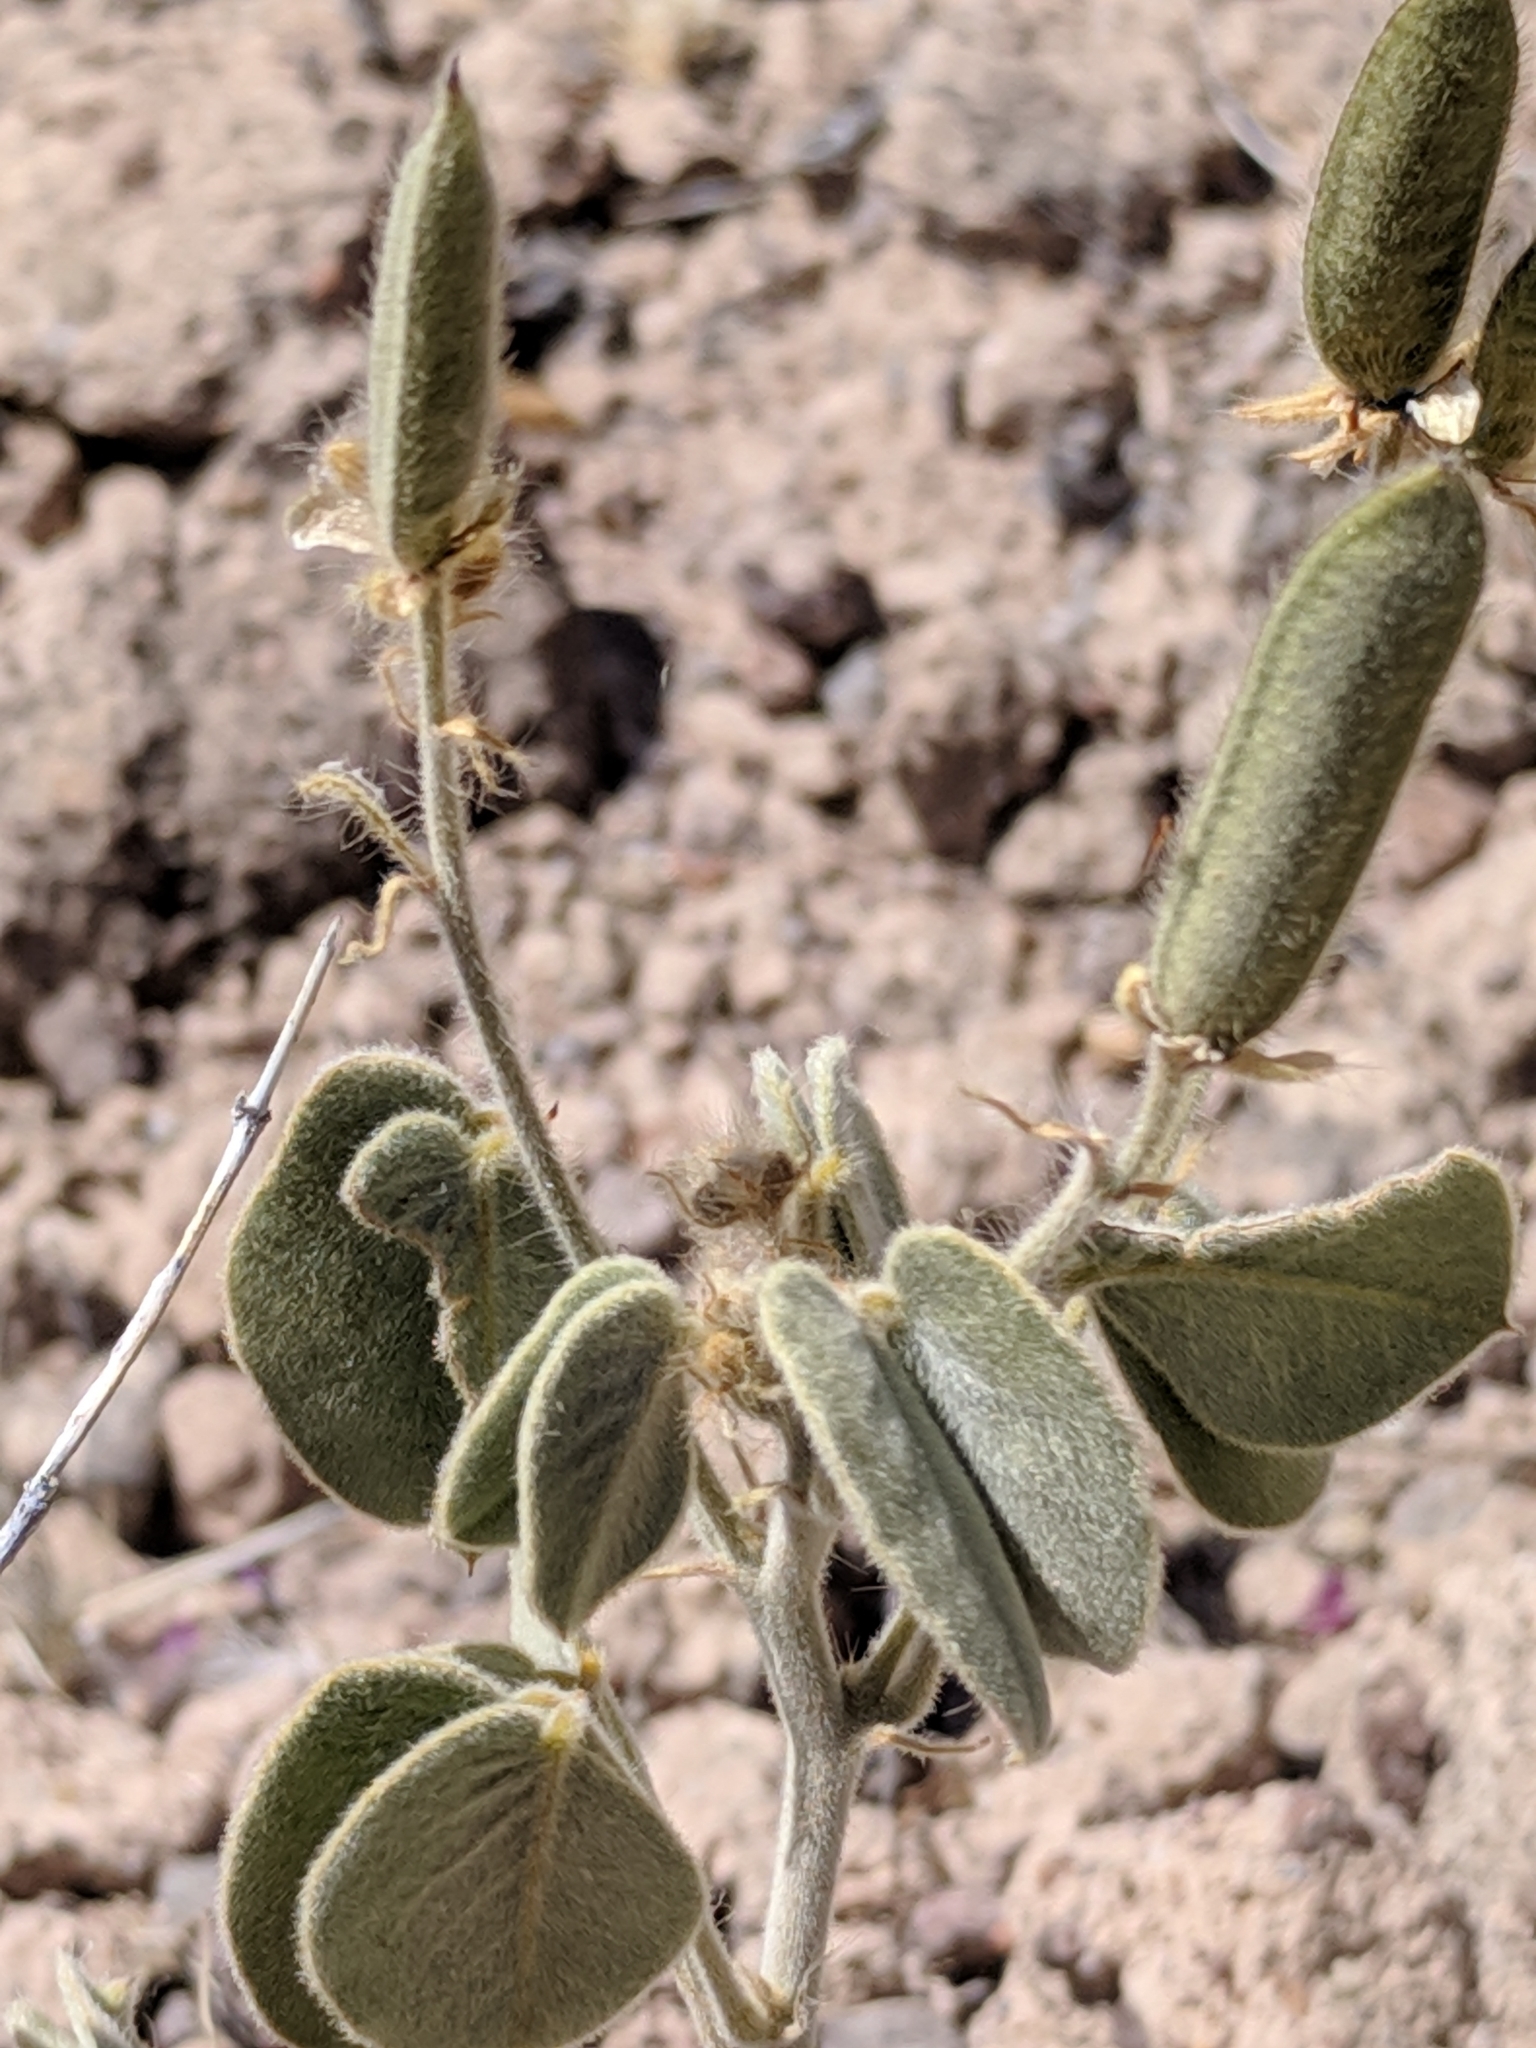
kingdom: Plantae
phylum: Tracheophyta
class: Magnoliopsida
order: Fabales
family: Fabaceae
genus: Senna
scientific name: Senna pilosior
